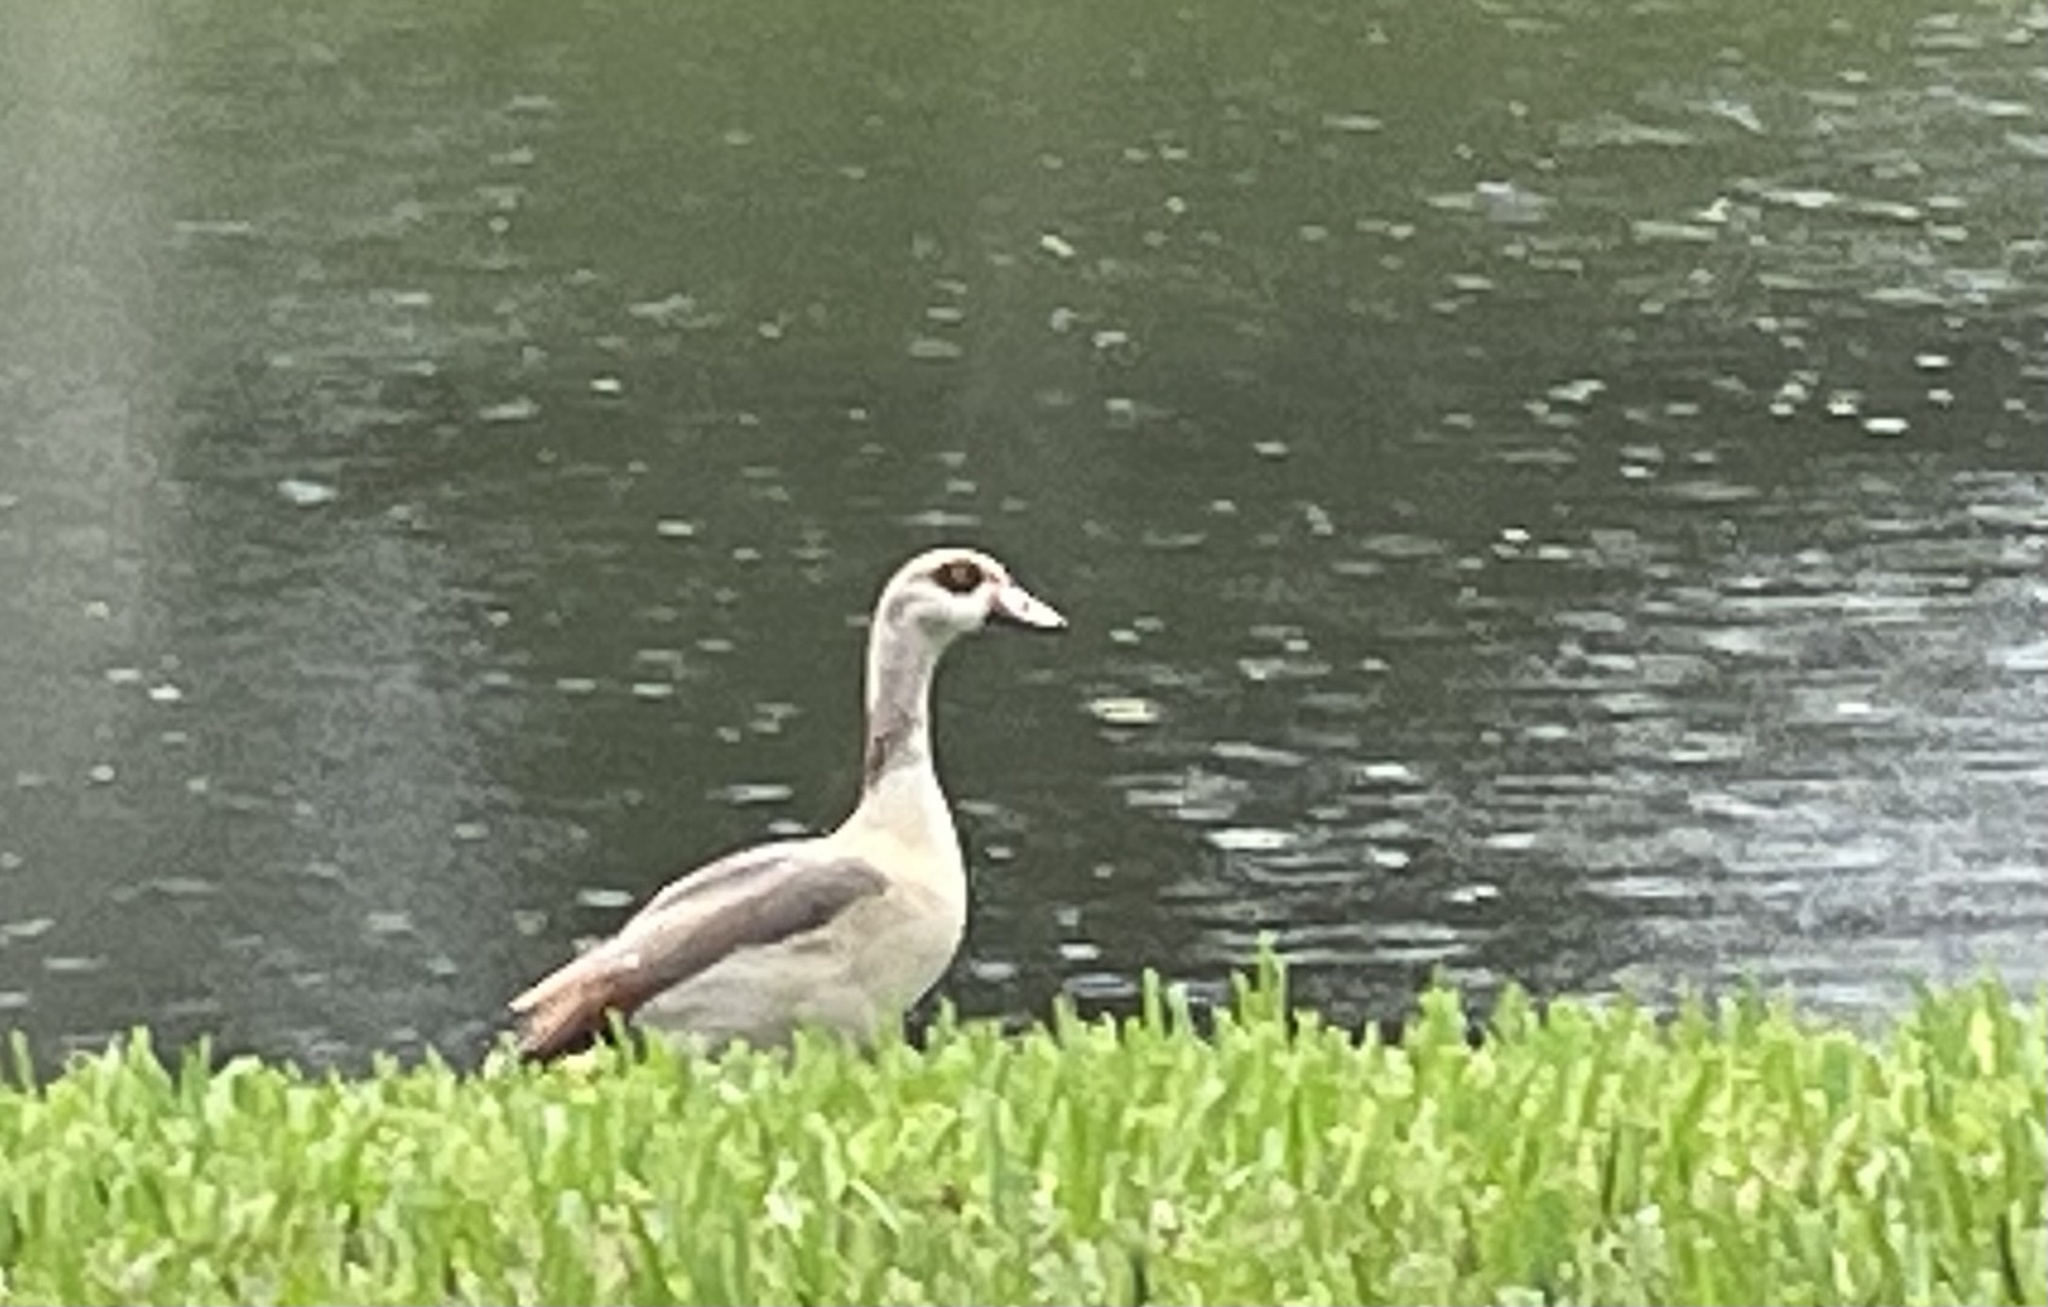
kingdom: Animalia
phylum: Chordata
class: Aves
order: Anseriformes
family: Anatidae
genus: Alopochen
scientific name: Alopochen aegyptiaca
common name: Egyptian goose
